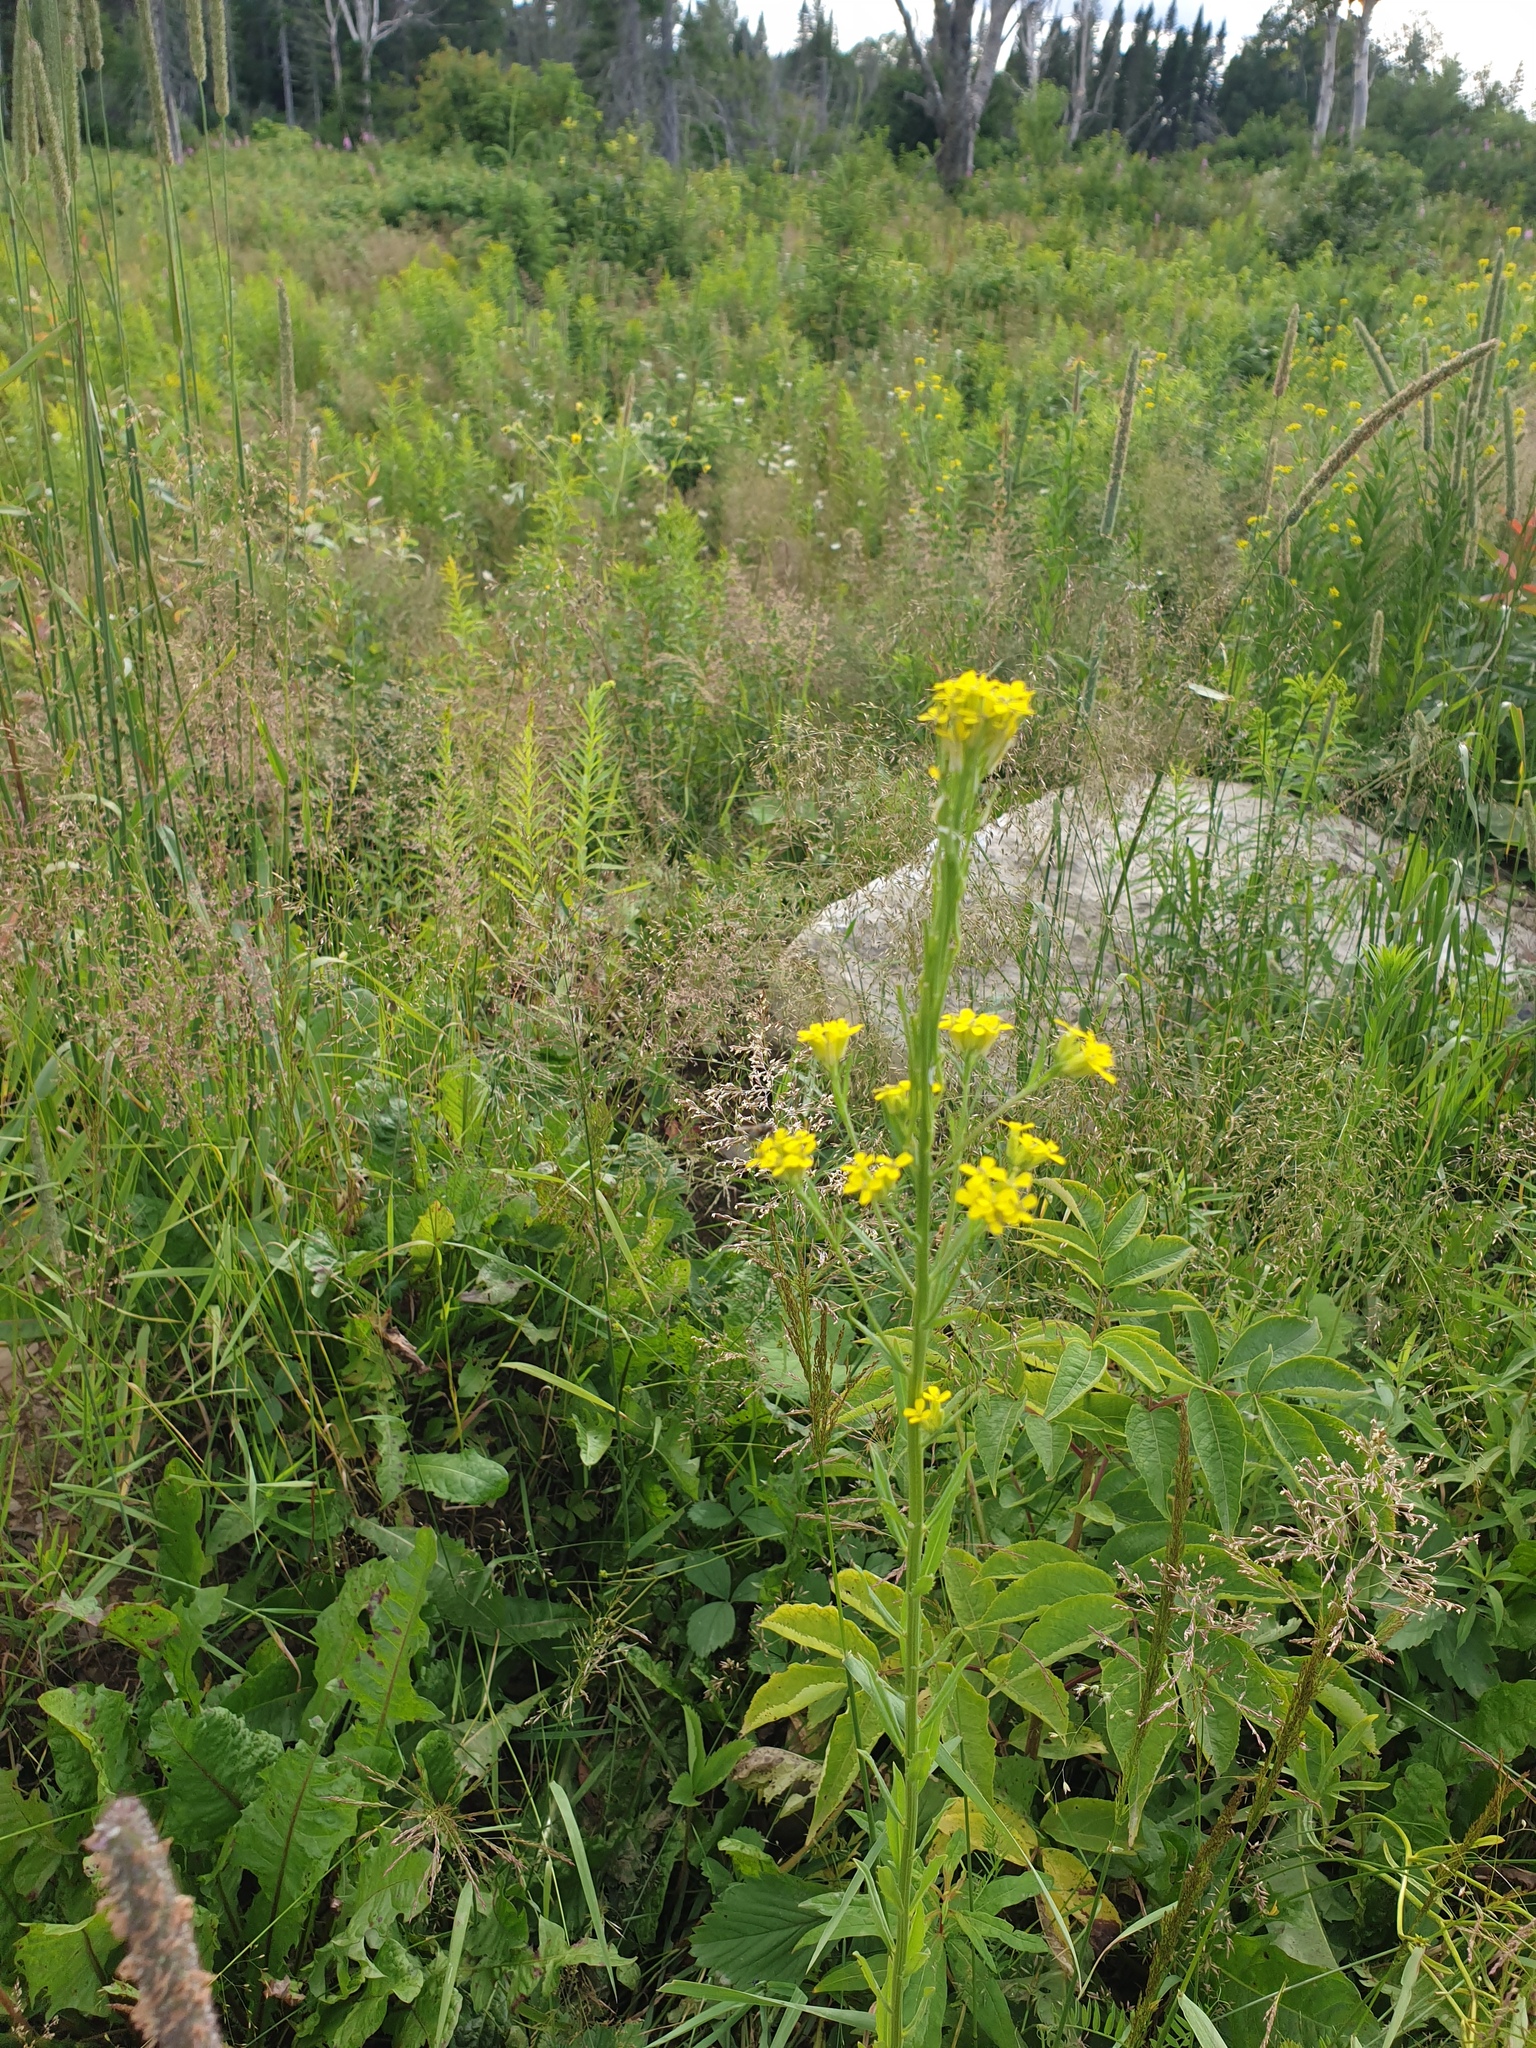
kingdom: Plantae
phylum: Tracheophyta
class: Magnoliopsida
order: Brassicales
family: Brassicaceae
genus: Erysimum
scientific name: Erysimum hieraciifolium
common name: European wallflower
